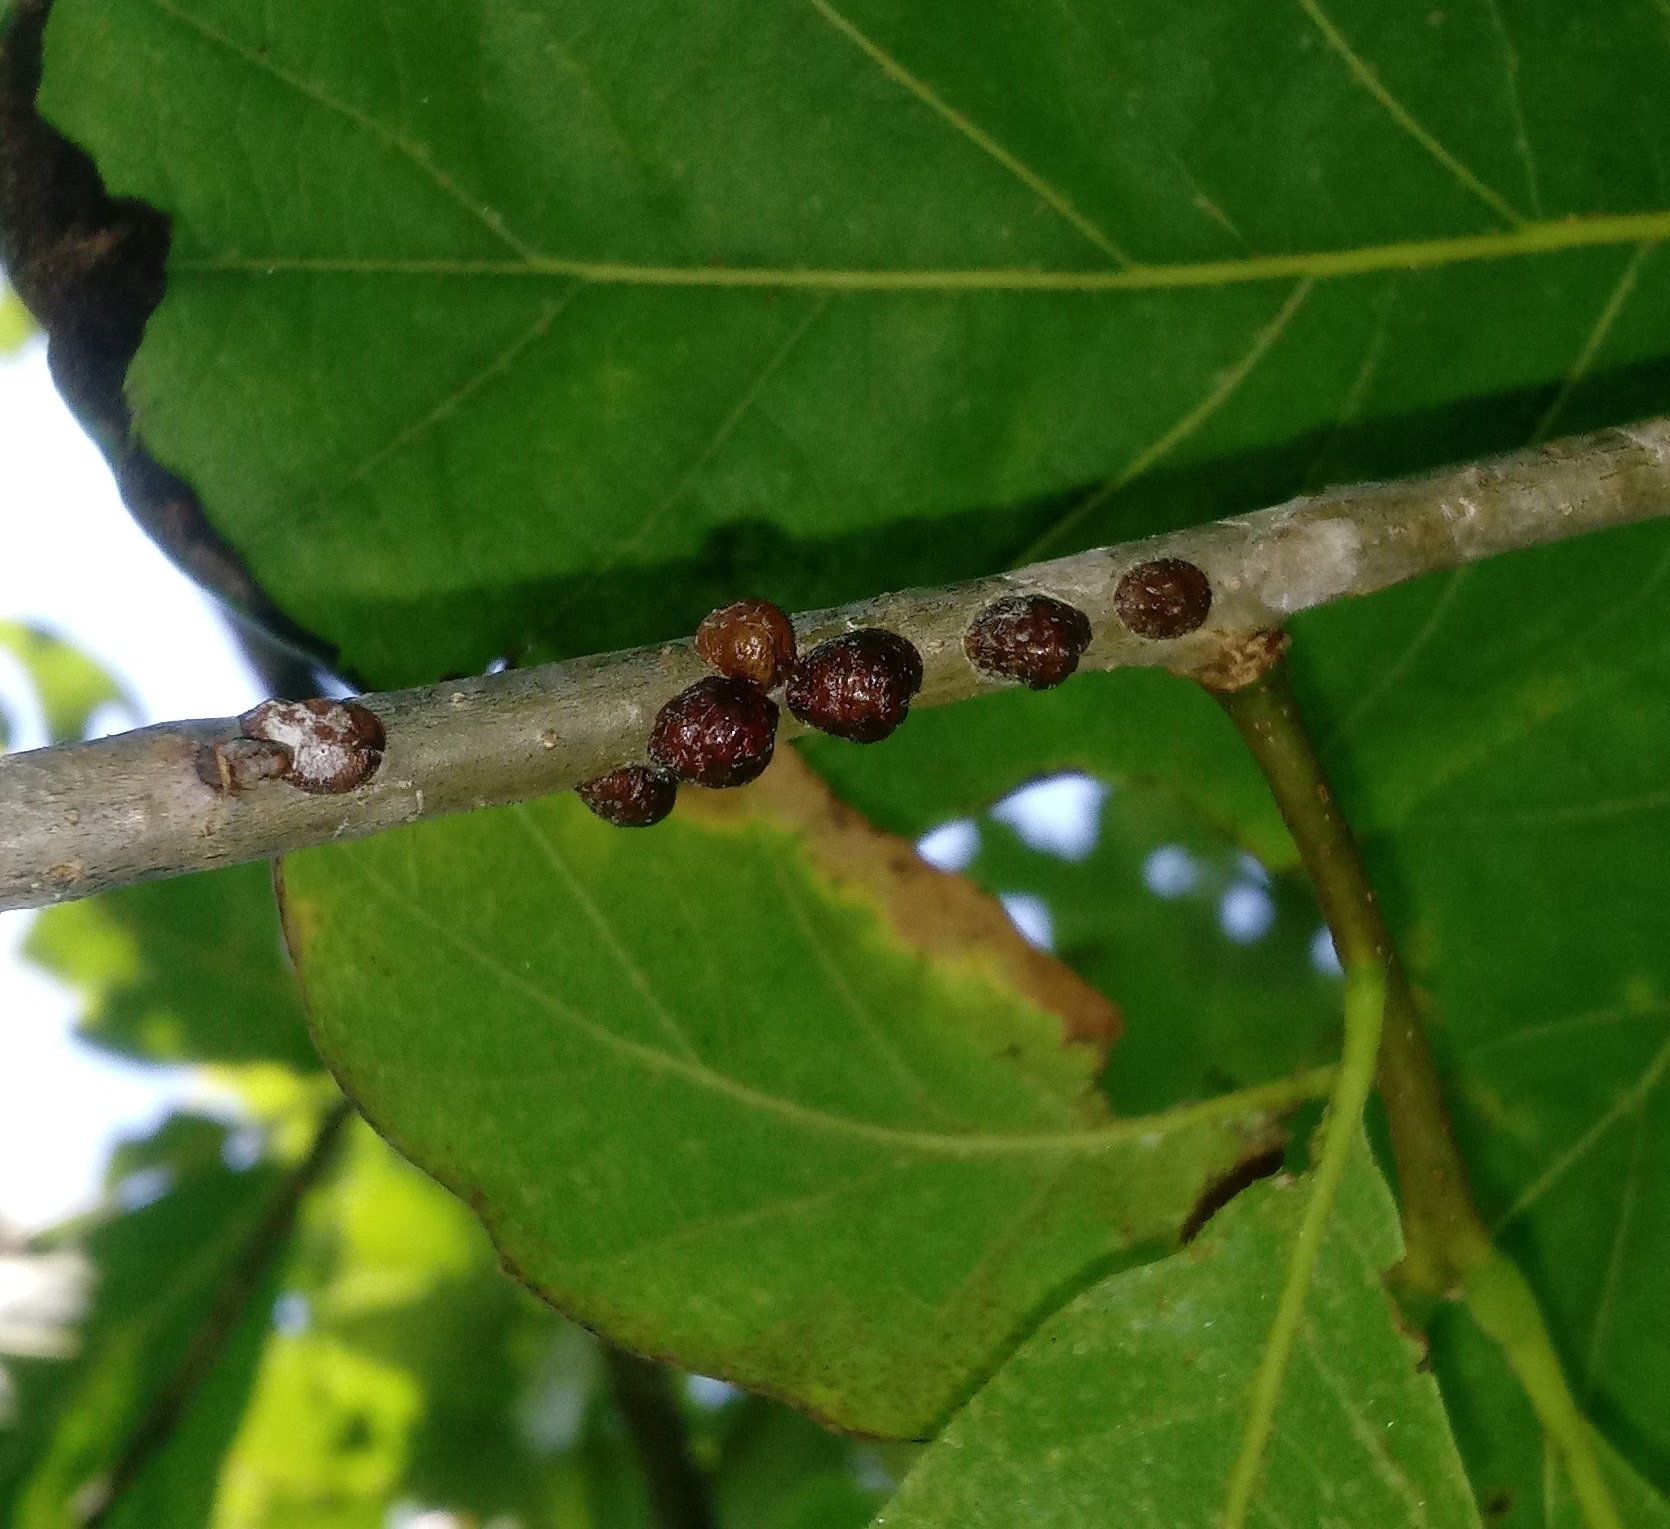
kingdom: Animalia
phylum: Arthropoda
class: Insecta
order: Hemiptera
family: Coccidae
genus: Parthenolecanium
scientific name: Parthenolecanium quercifex
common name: Oak lecanium
